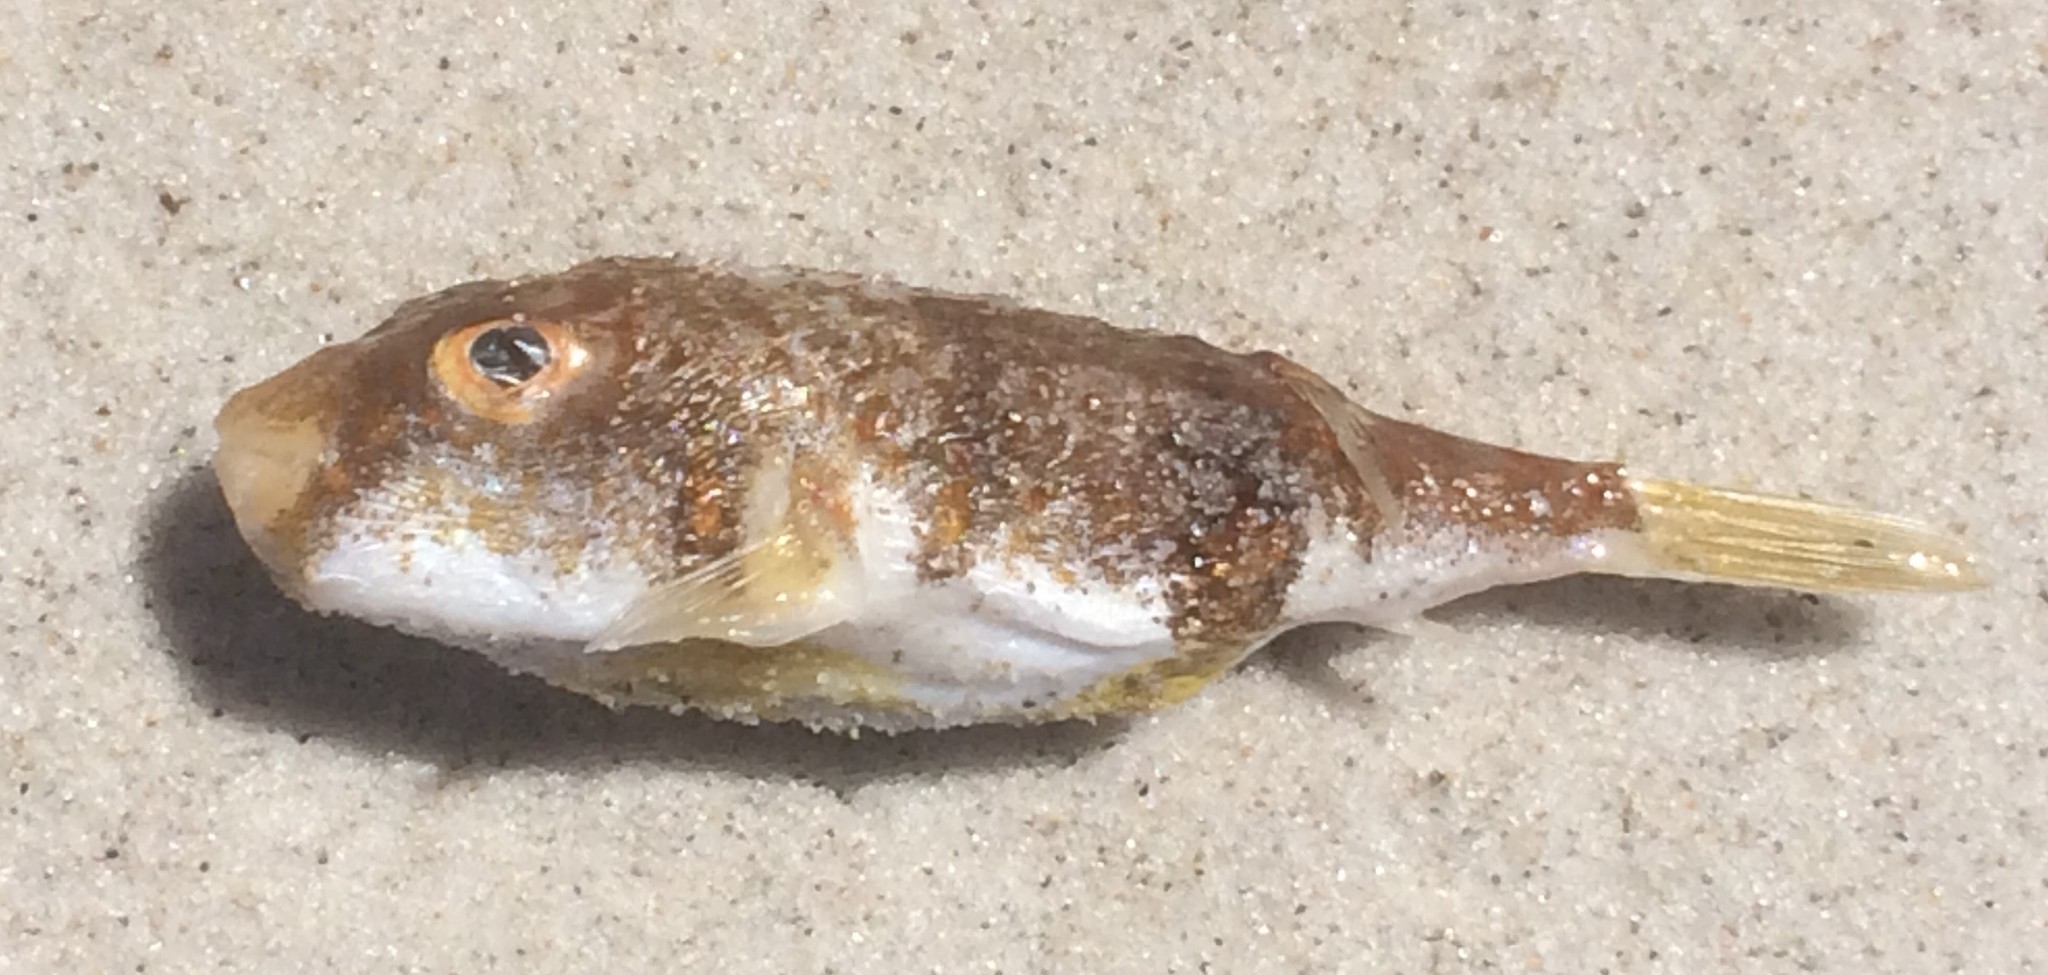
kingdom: Animalia
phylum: Chordata
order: Tetraodontiformes
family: Tetraodontidae
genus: Polyspina
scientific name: Polyspina piosae
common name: Orange-barred pufferfish
